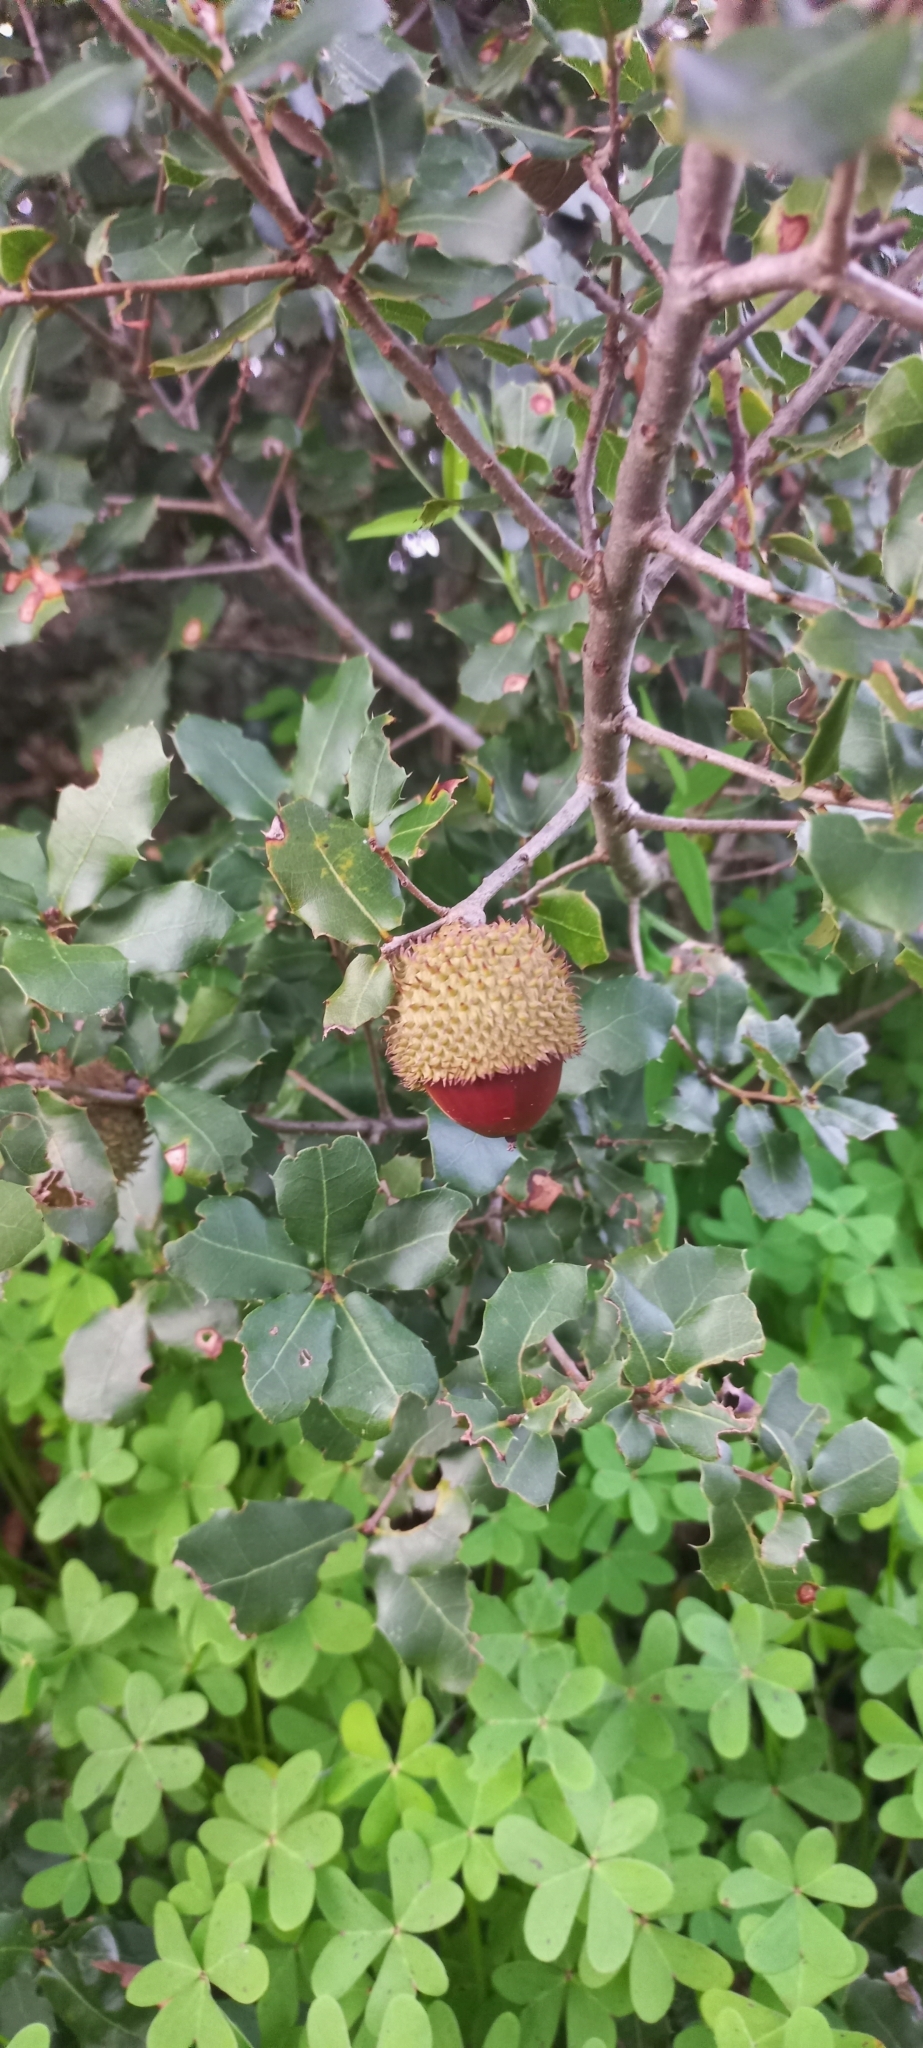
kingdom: Plantae
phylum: Tracheophyta
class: Magnoliopsida
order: Fagales
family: Fagaceae
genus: Quercus
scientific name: Quercus coccifera
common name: Kermes oak
